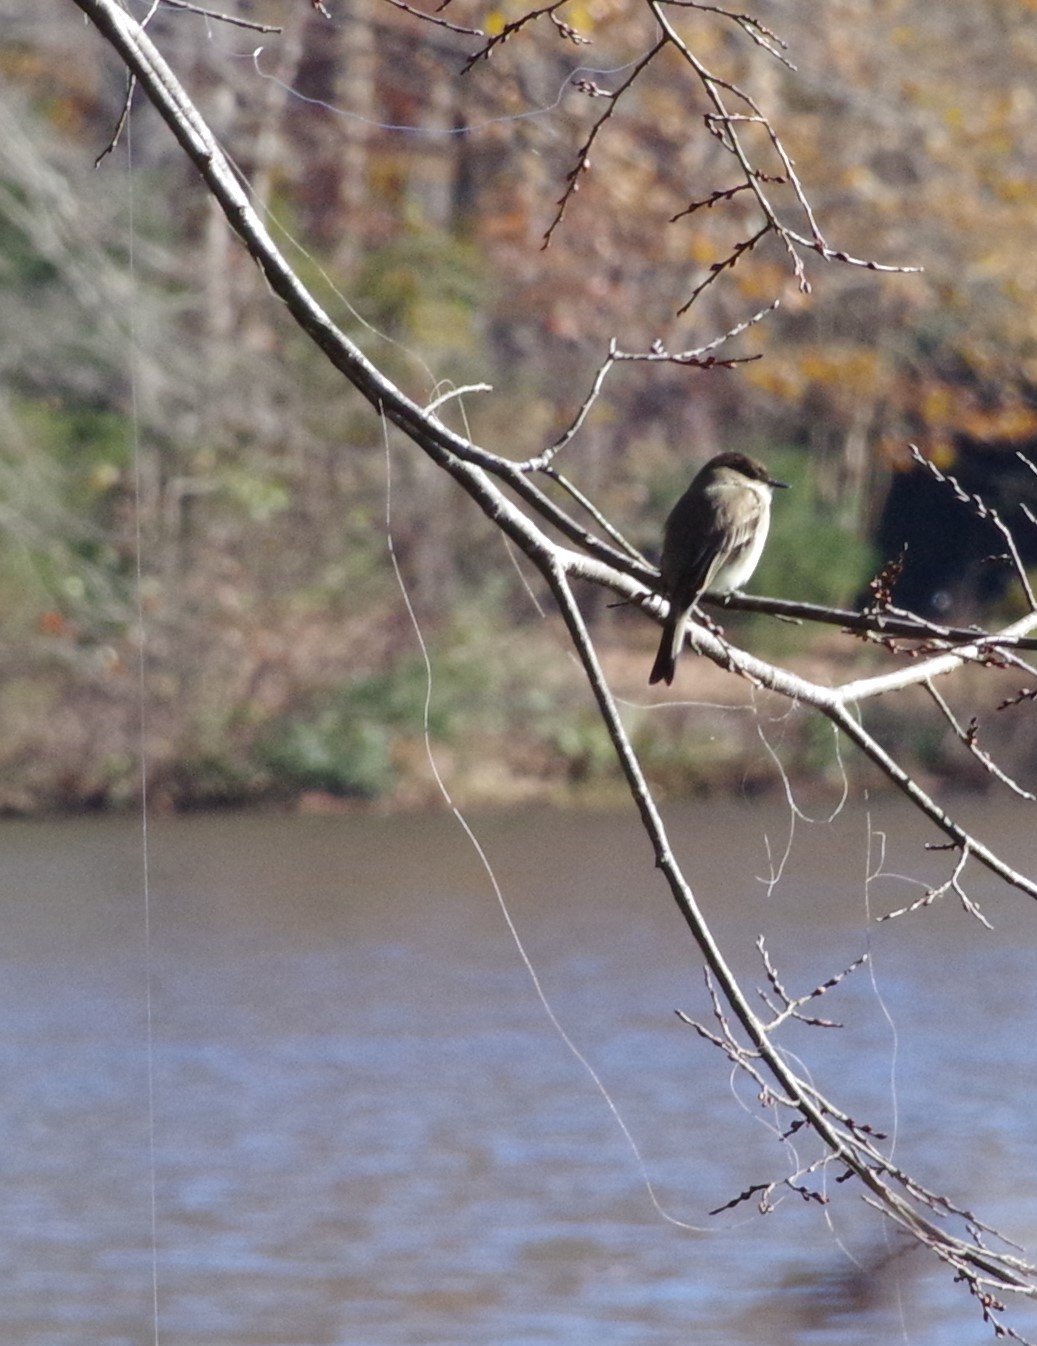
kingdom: Animalia
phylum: Chordata
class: Aves
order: Passeriformes
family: Tyrannidae
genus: Sayornis
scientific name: Sayornis phoebe
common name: Eastern phoebe
